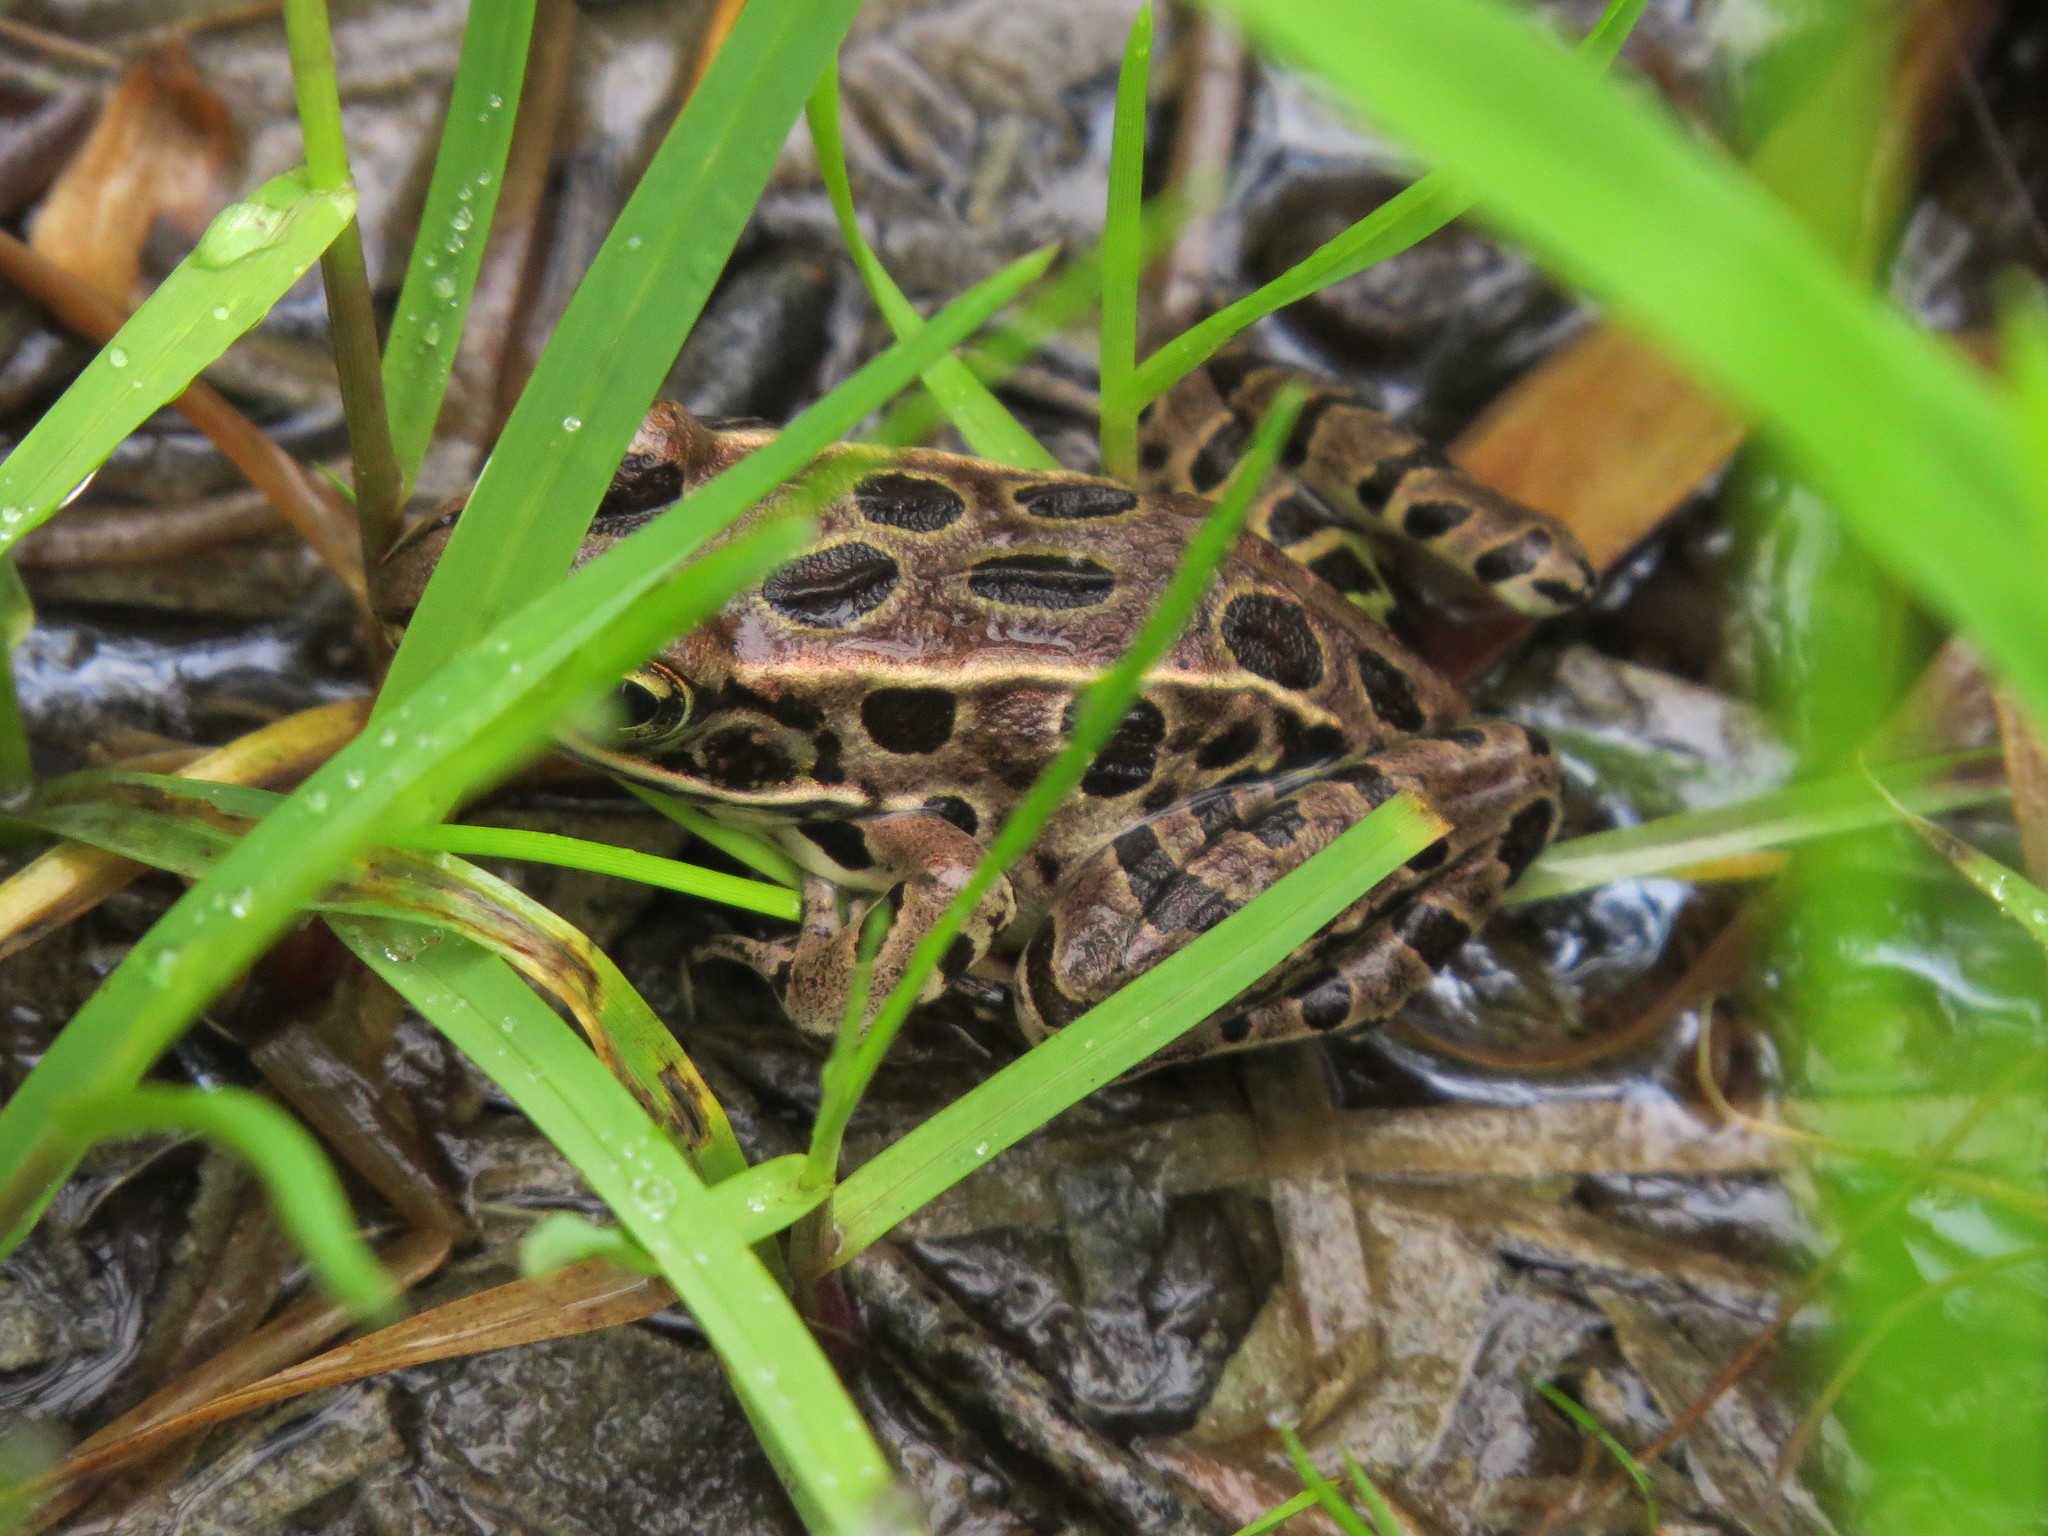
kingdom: Animalia
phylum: Chordata
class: Amphibia
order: Anura
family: Ranidae
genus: Lithobates
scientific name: Lithobates pipiens
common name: Northern leopard frog
